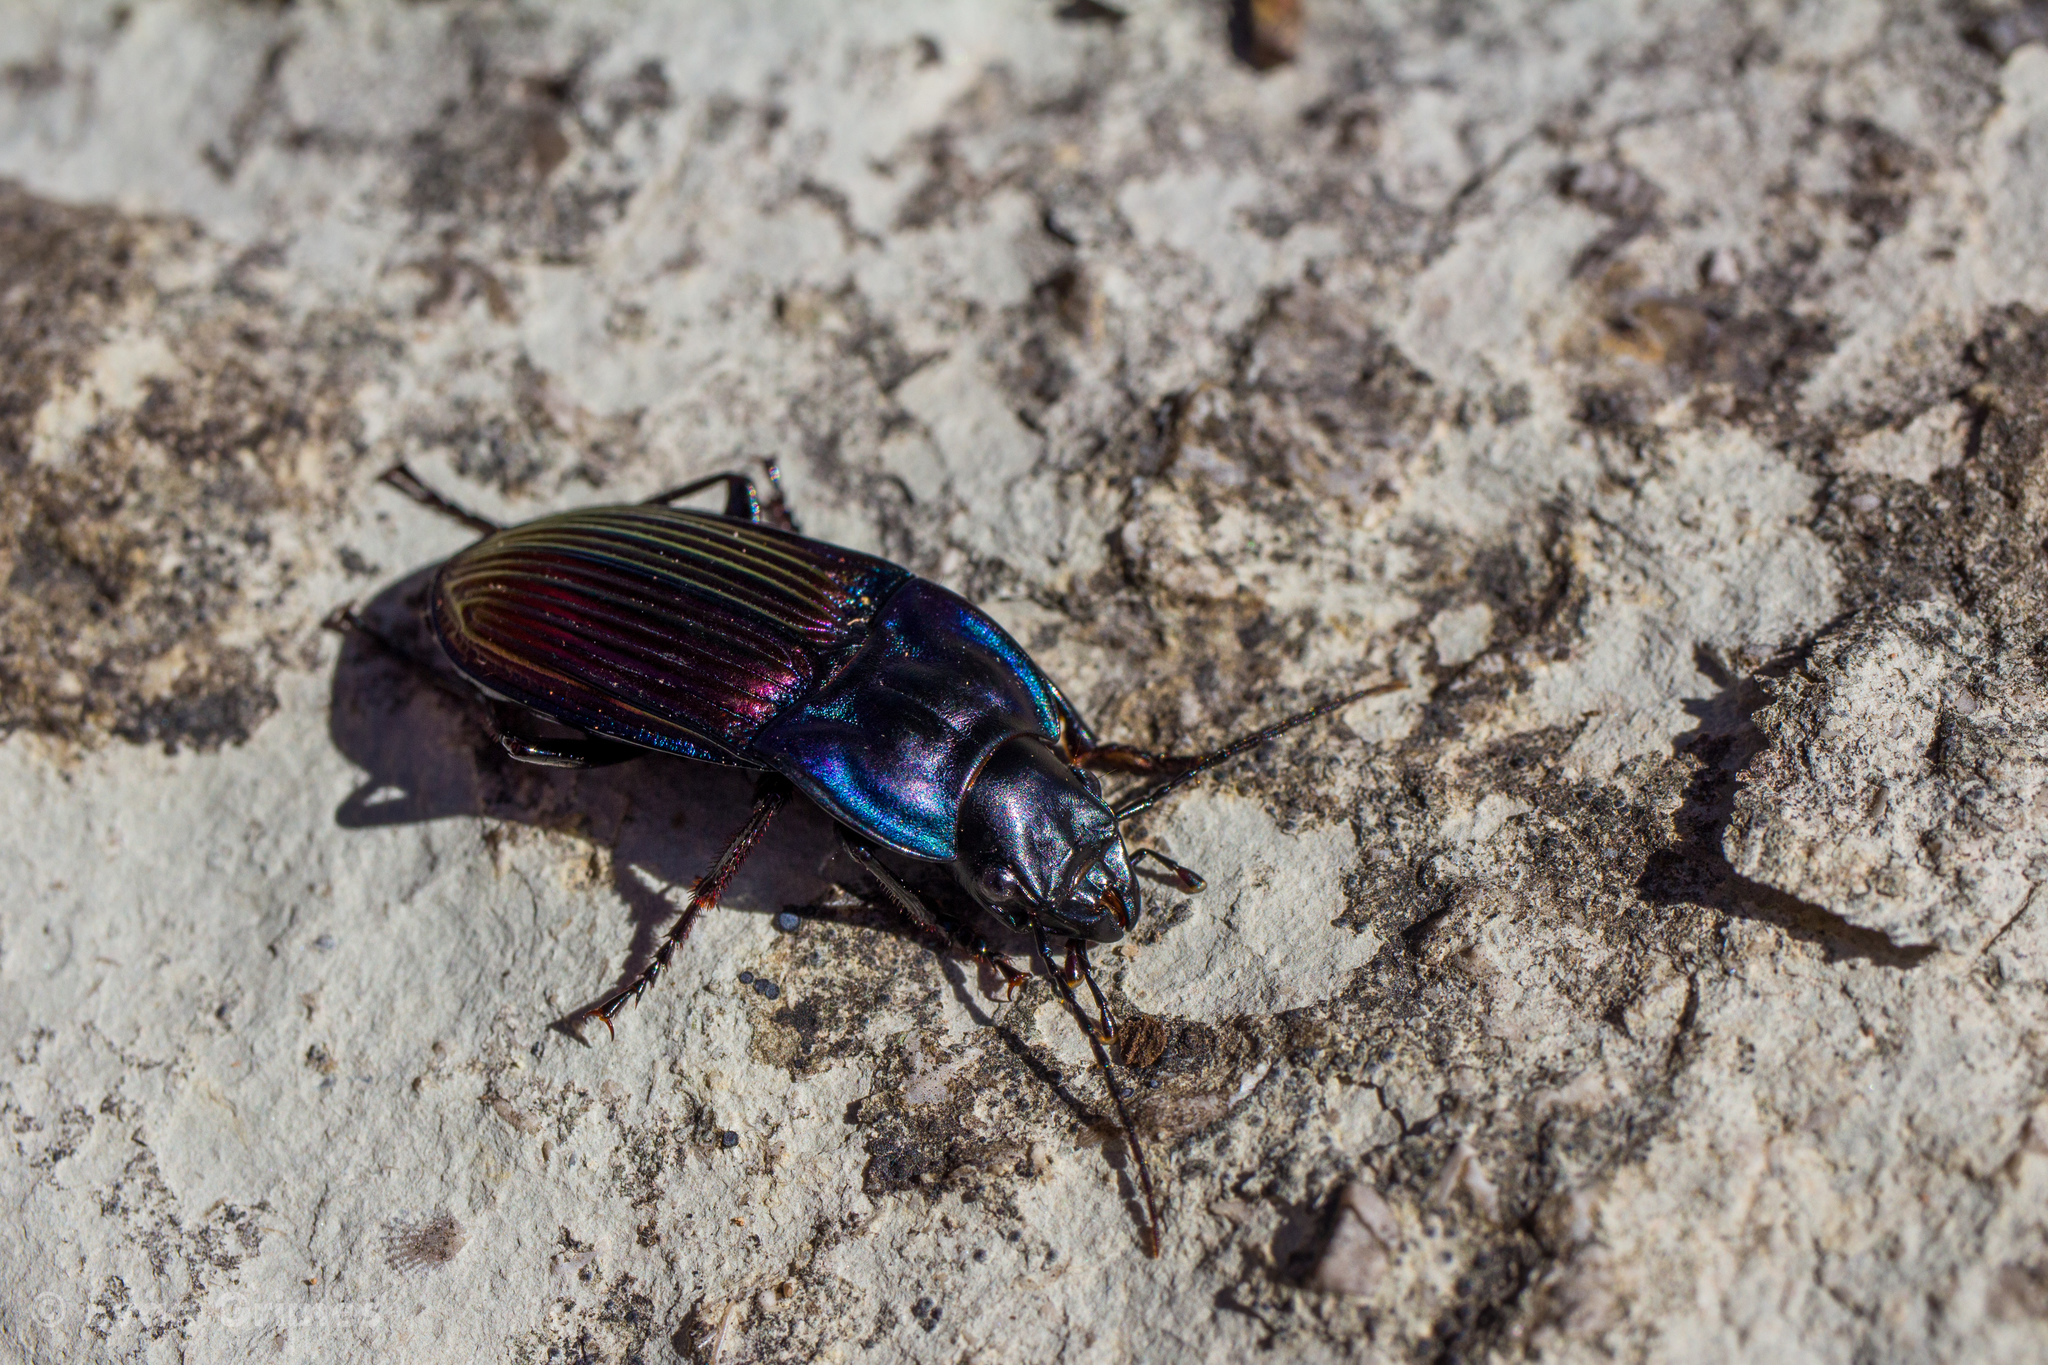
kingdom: Animalia
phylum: Arthropoda
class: Insecta
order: Coleoptera
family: Carabidae
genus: Dicaelus
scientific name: Dicaelus purpuratus
